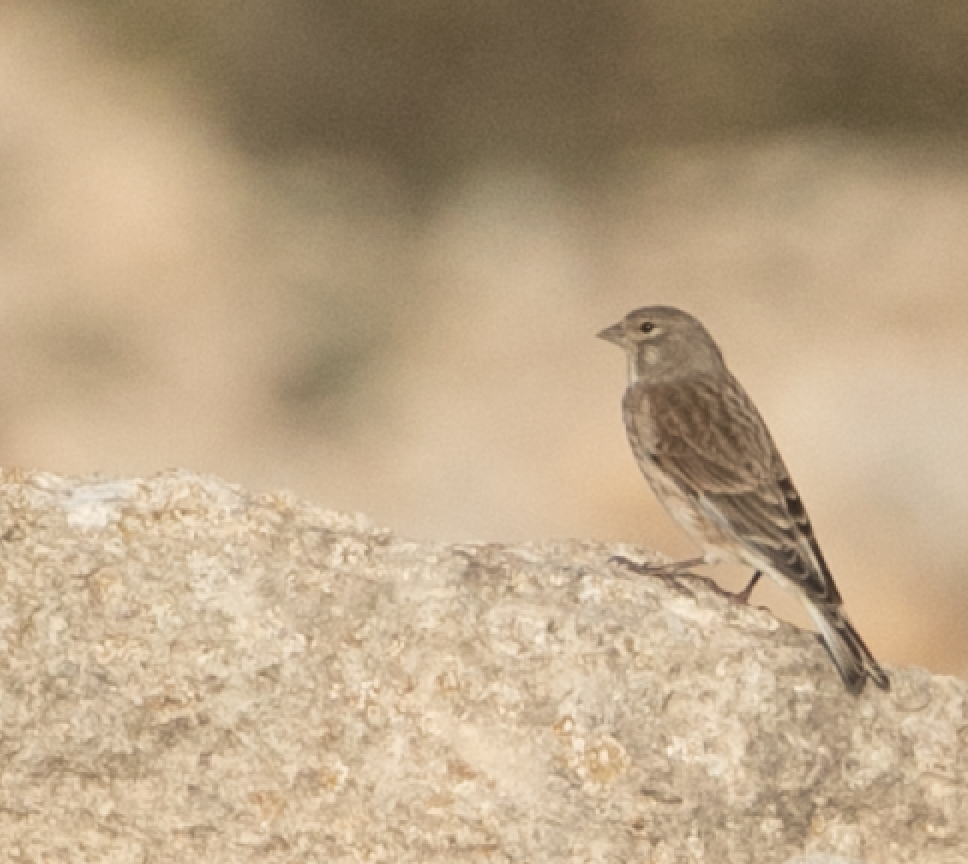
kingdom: Animalia
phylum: Chordata
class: Aves
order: Passeriformes
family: Fringillidae
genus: Linaria
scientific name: Linaria cannabina
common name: Common linnet
